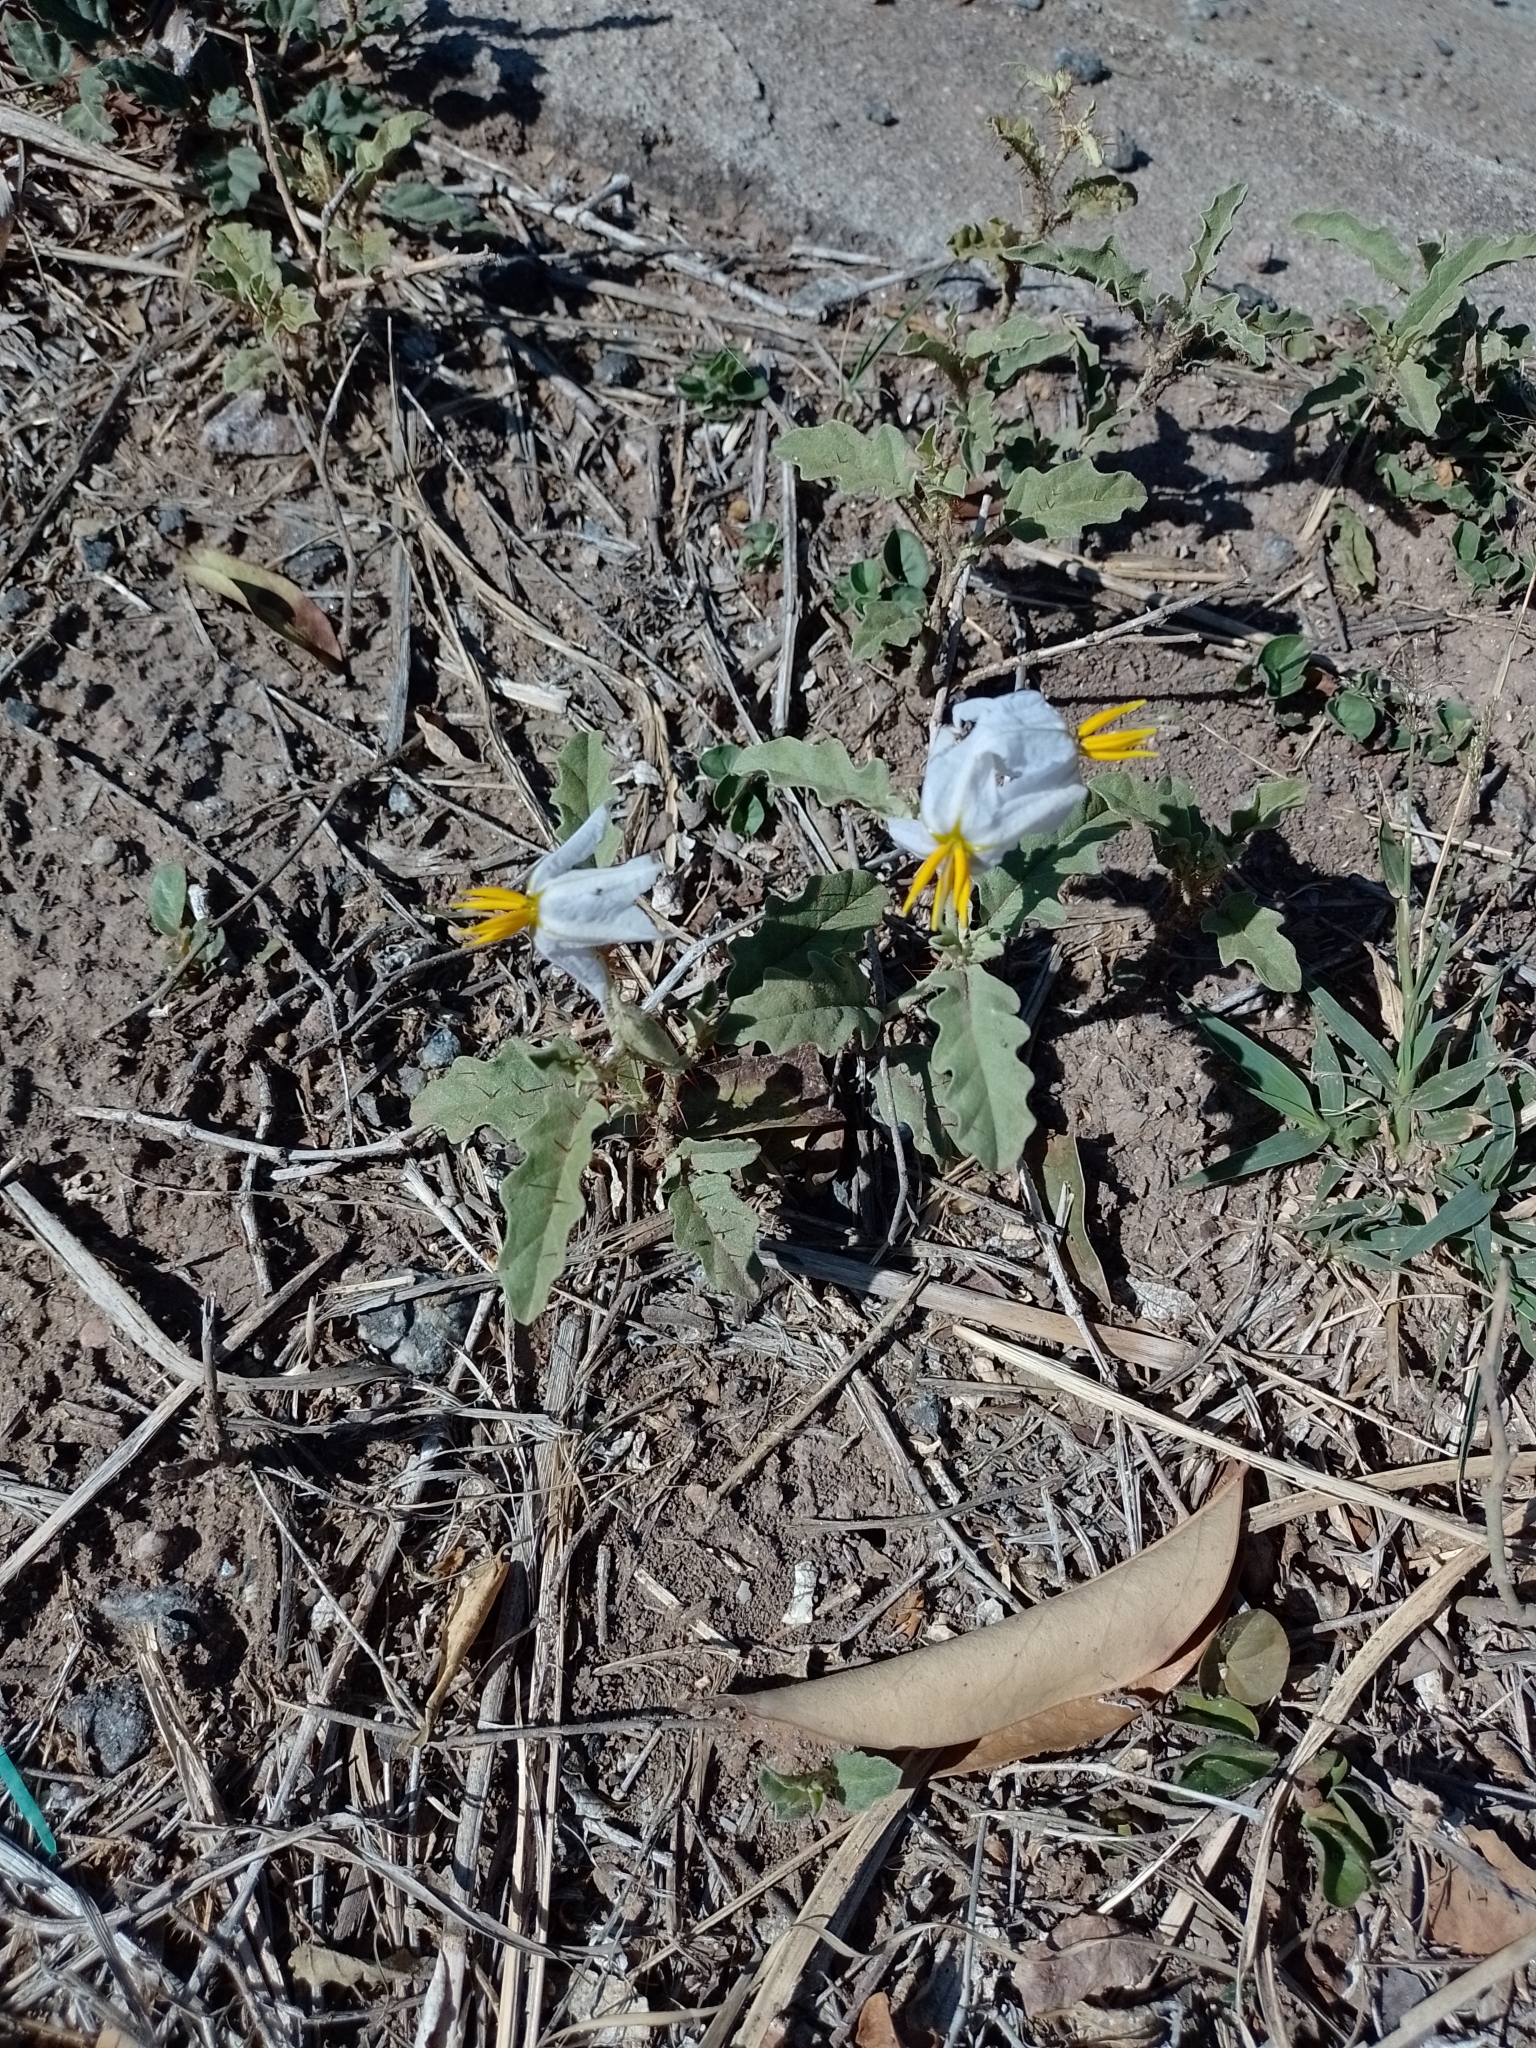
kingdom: Plantae
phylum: Tracheophyta
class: Magnoliopsida
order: Solanales
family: Solanaceae
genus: Solanum
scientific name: Solanum juvenale
